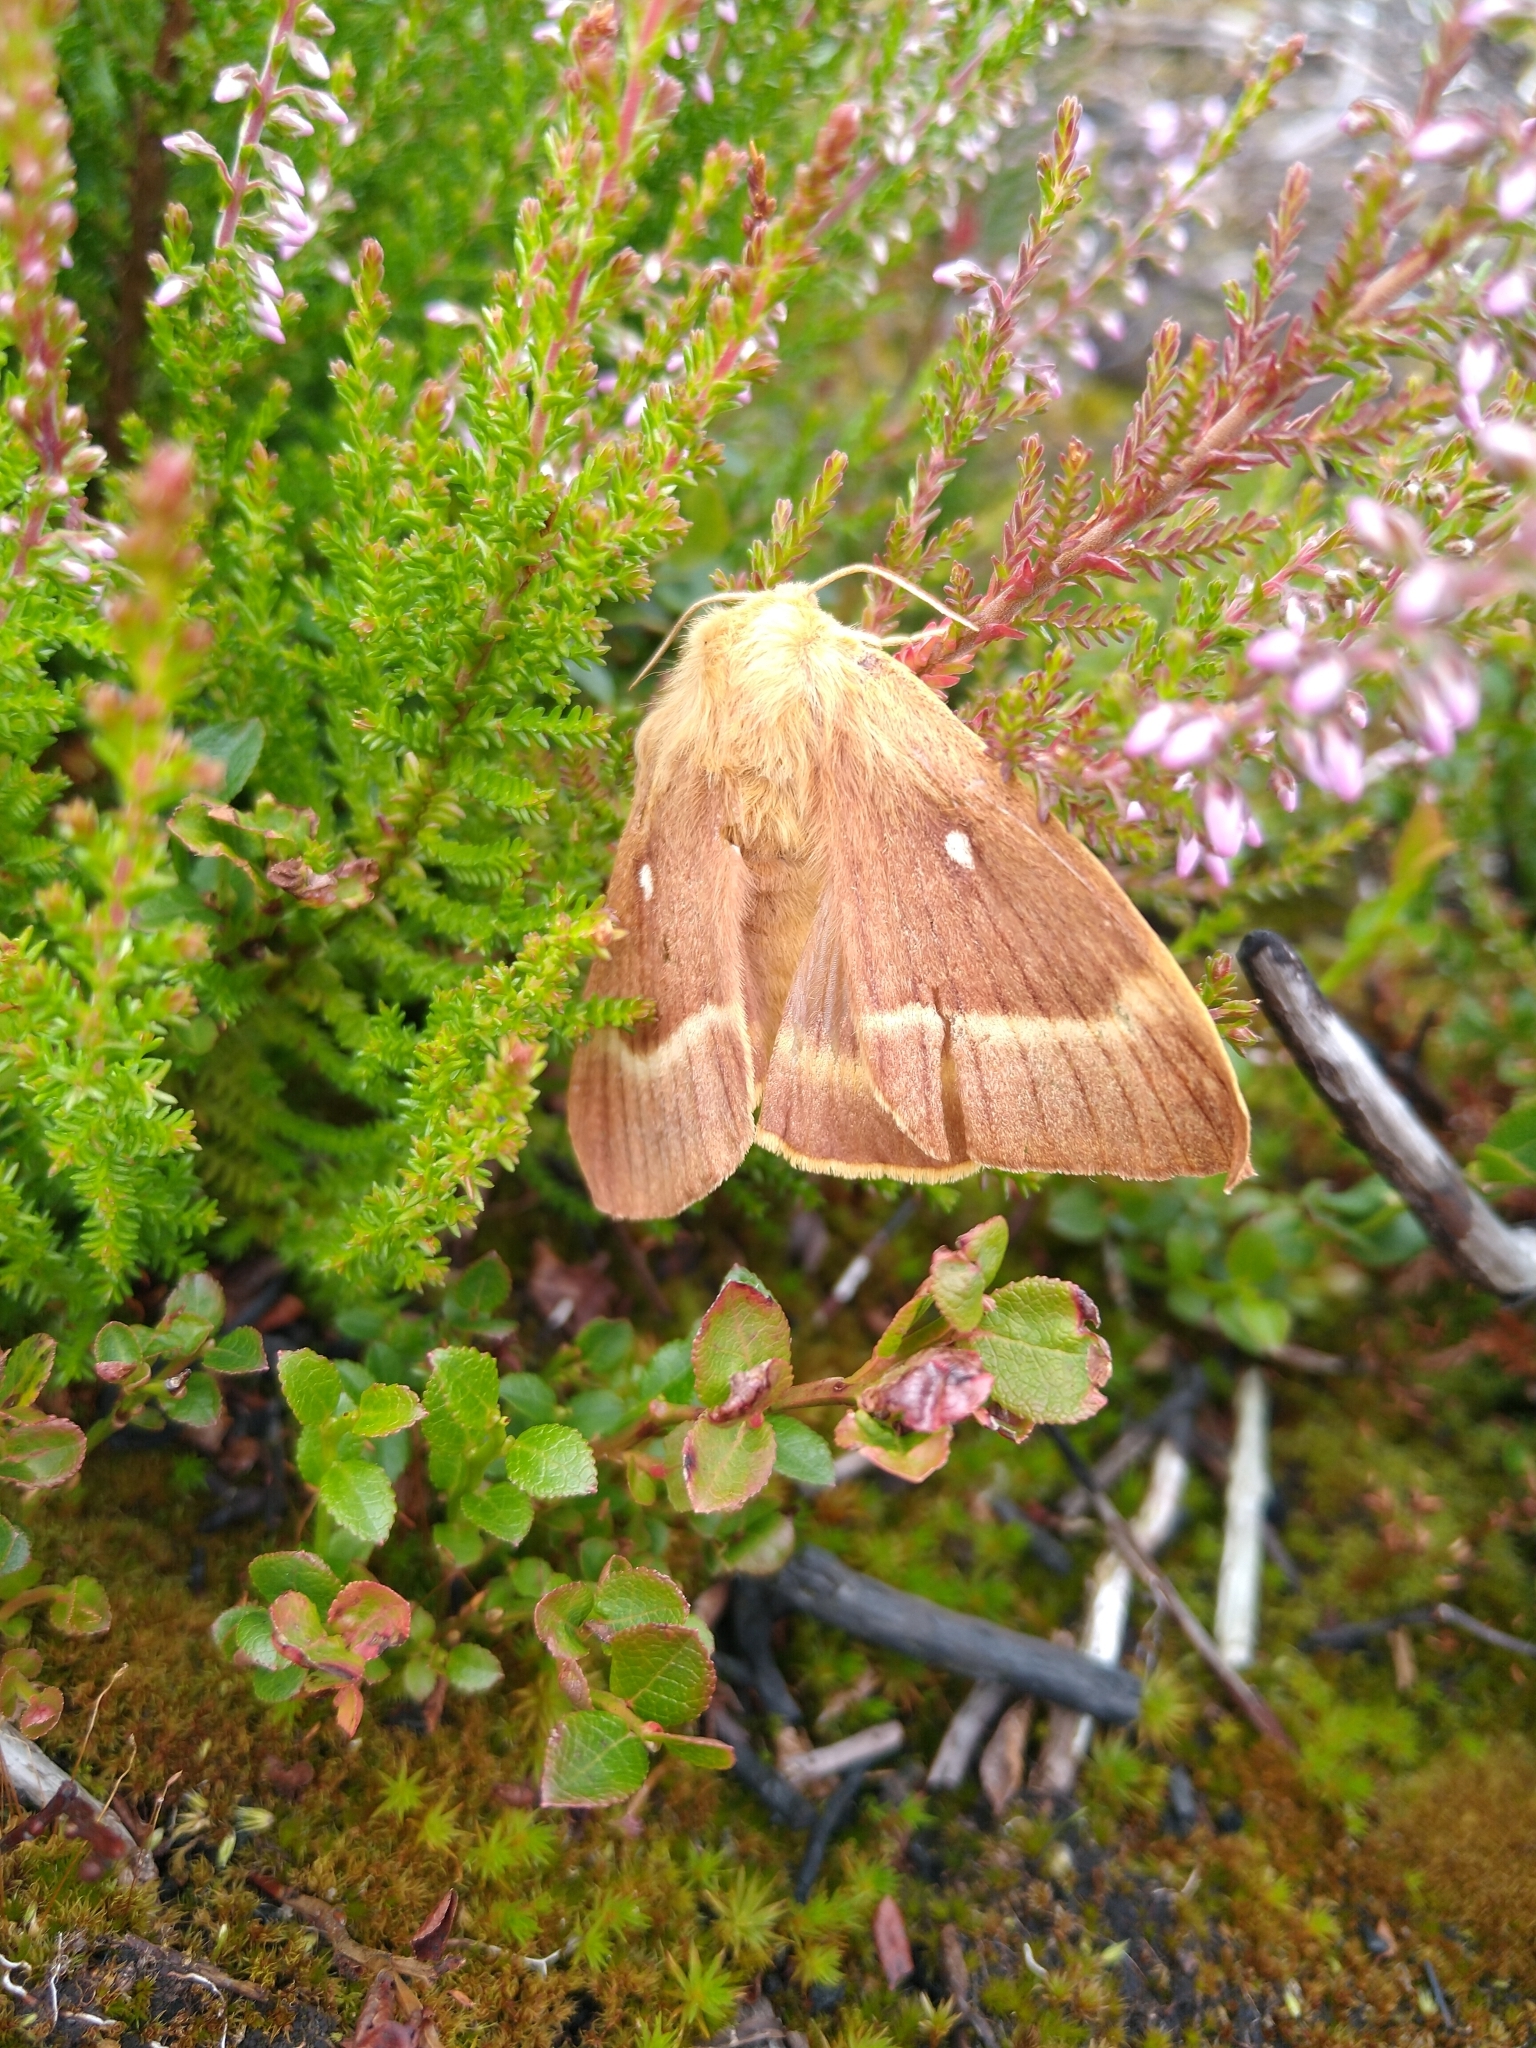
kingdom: Animalia
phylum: Arthropoda
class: Insecta
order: Lepidoptera
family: Lasiocampidae
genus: Lasiocampa
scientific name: Lasiocampa quercus
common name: Oak eggar
